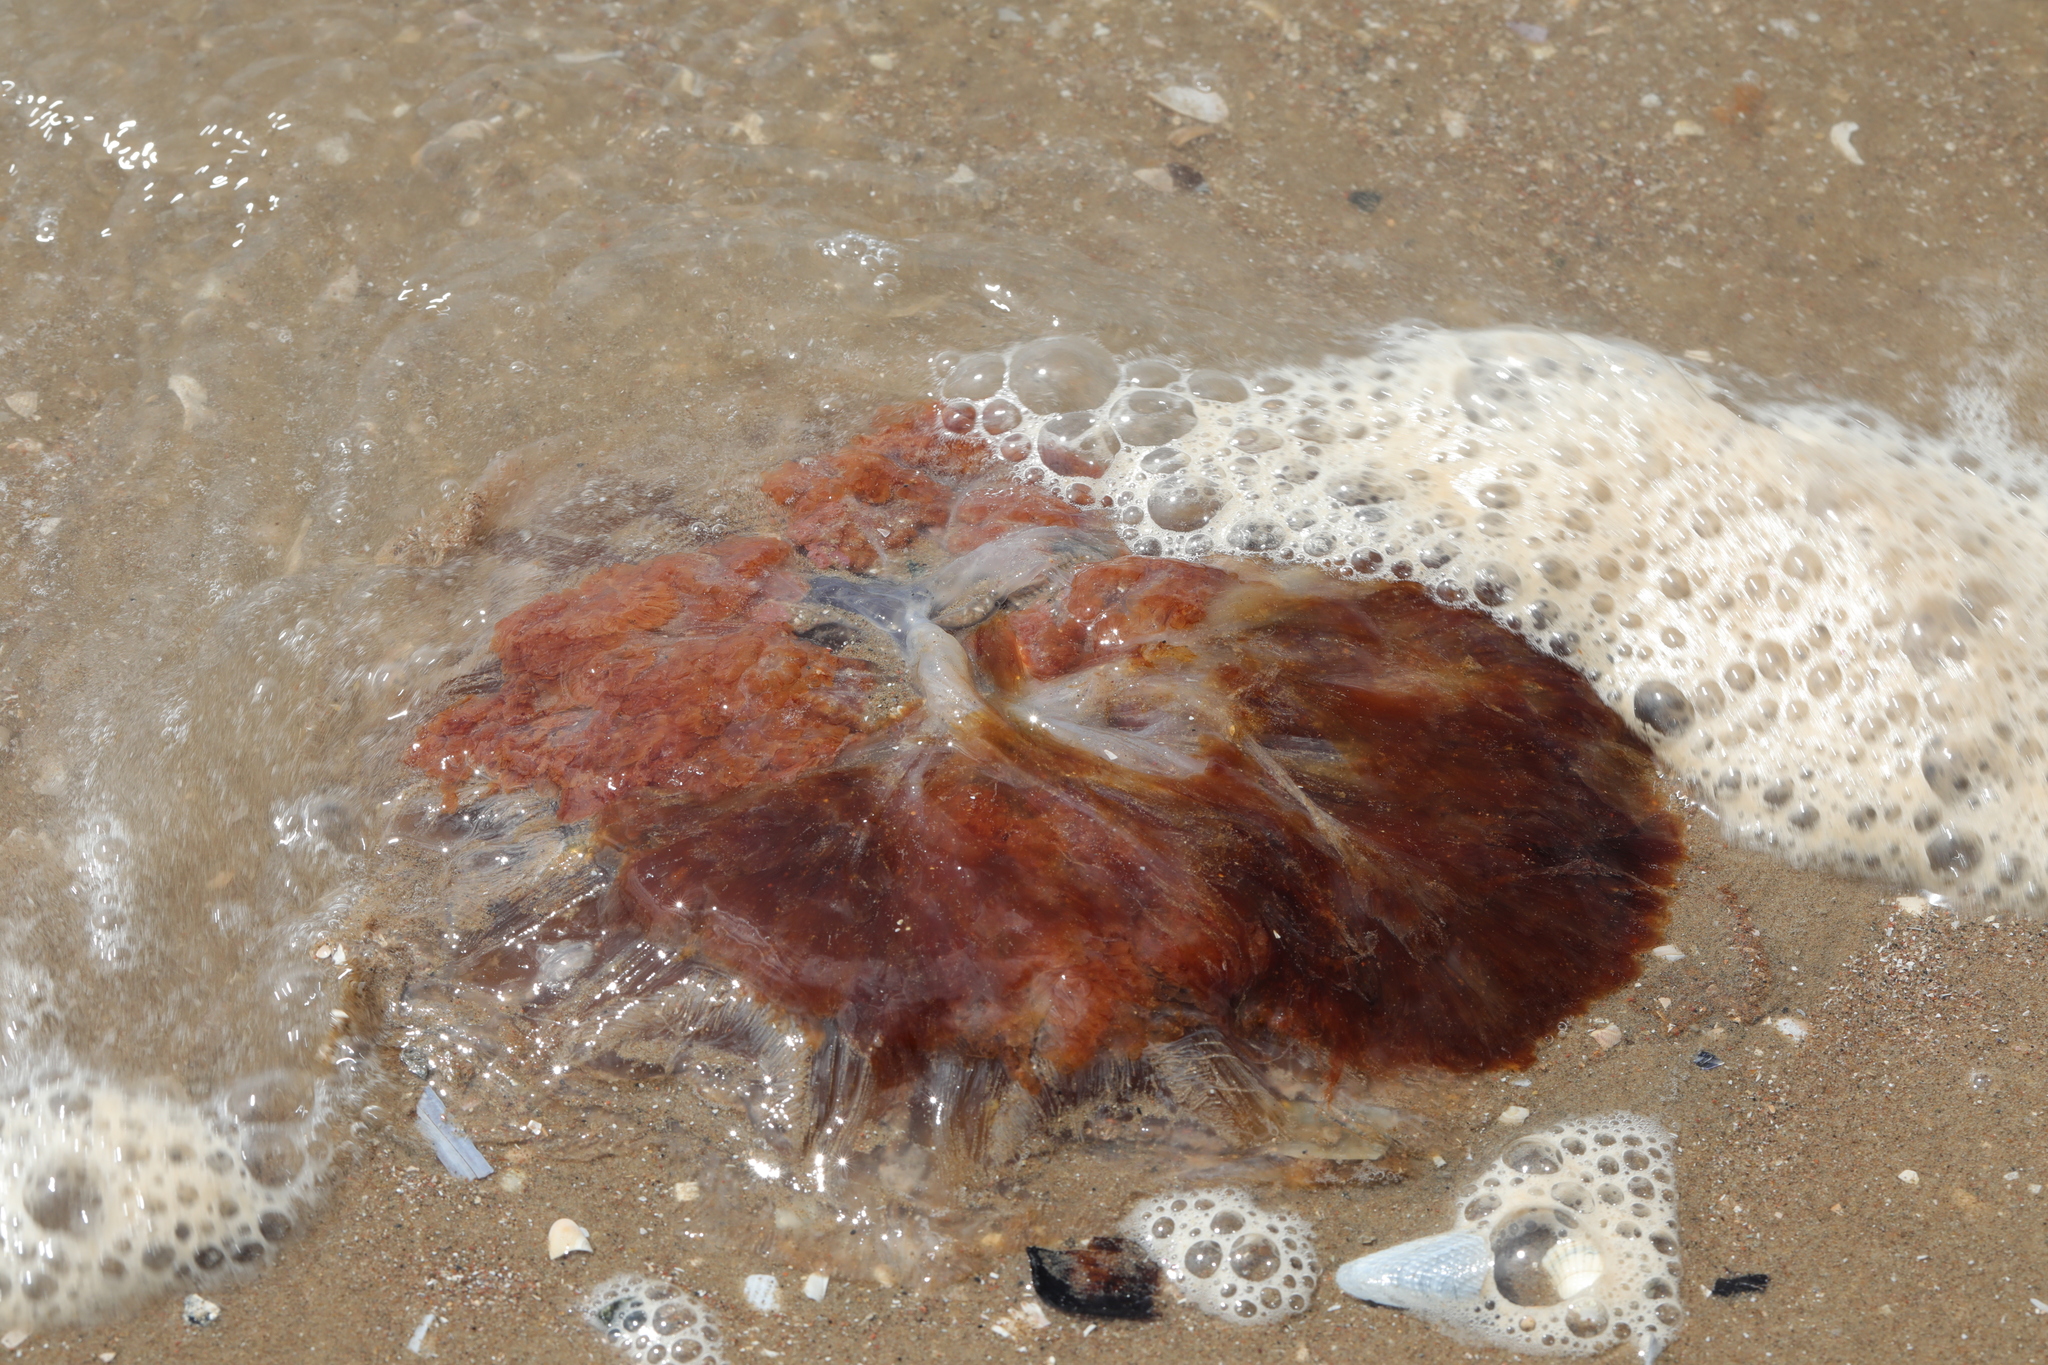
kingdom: Animalia
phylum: Cnidaria
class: Scyphozoa
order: Semaeostomeae
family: Cyaneidae
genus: Cyanea
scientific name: Cyanea capillata
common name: Lion's mane jellyfish
